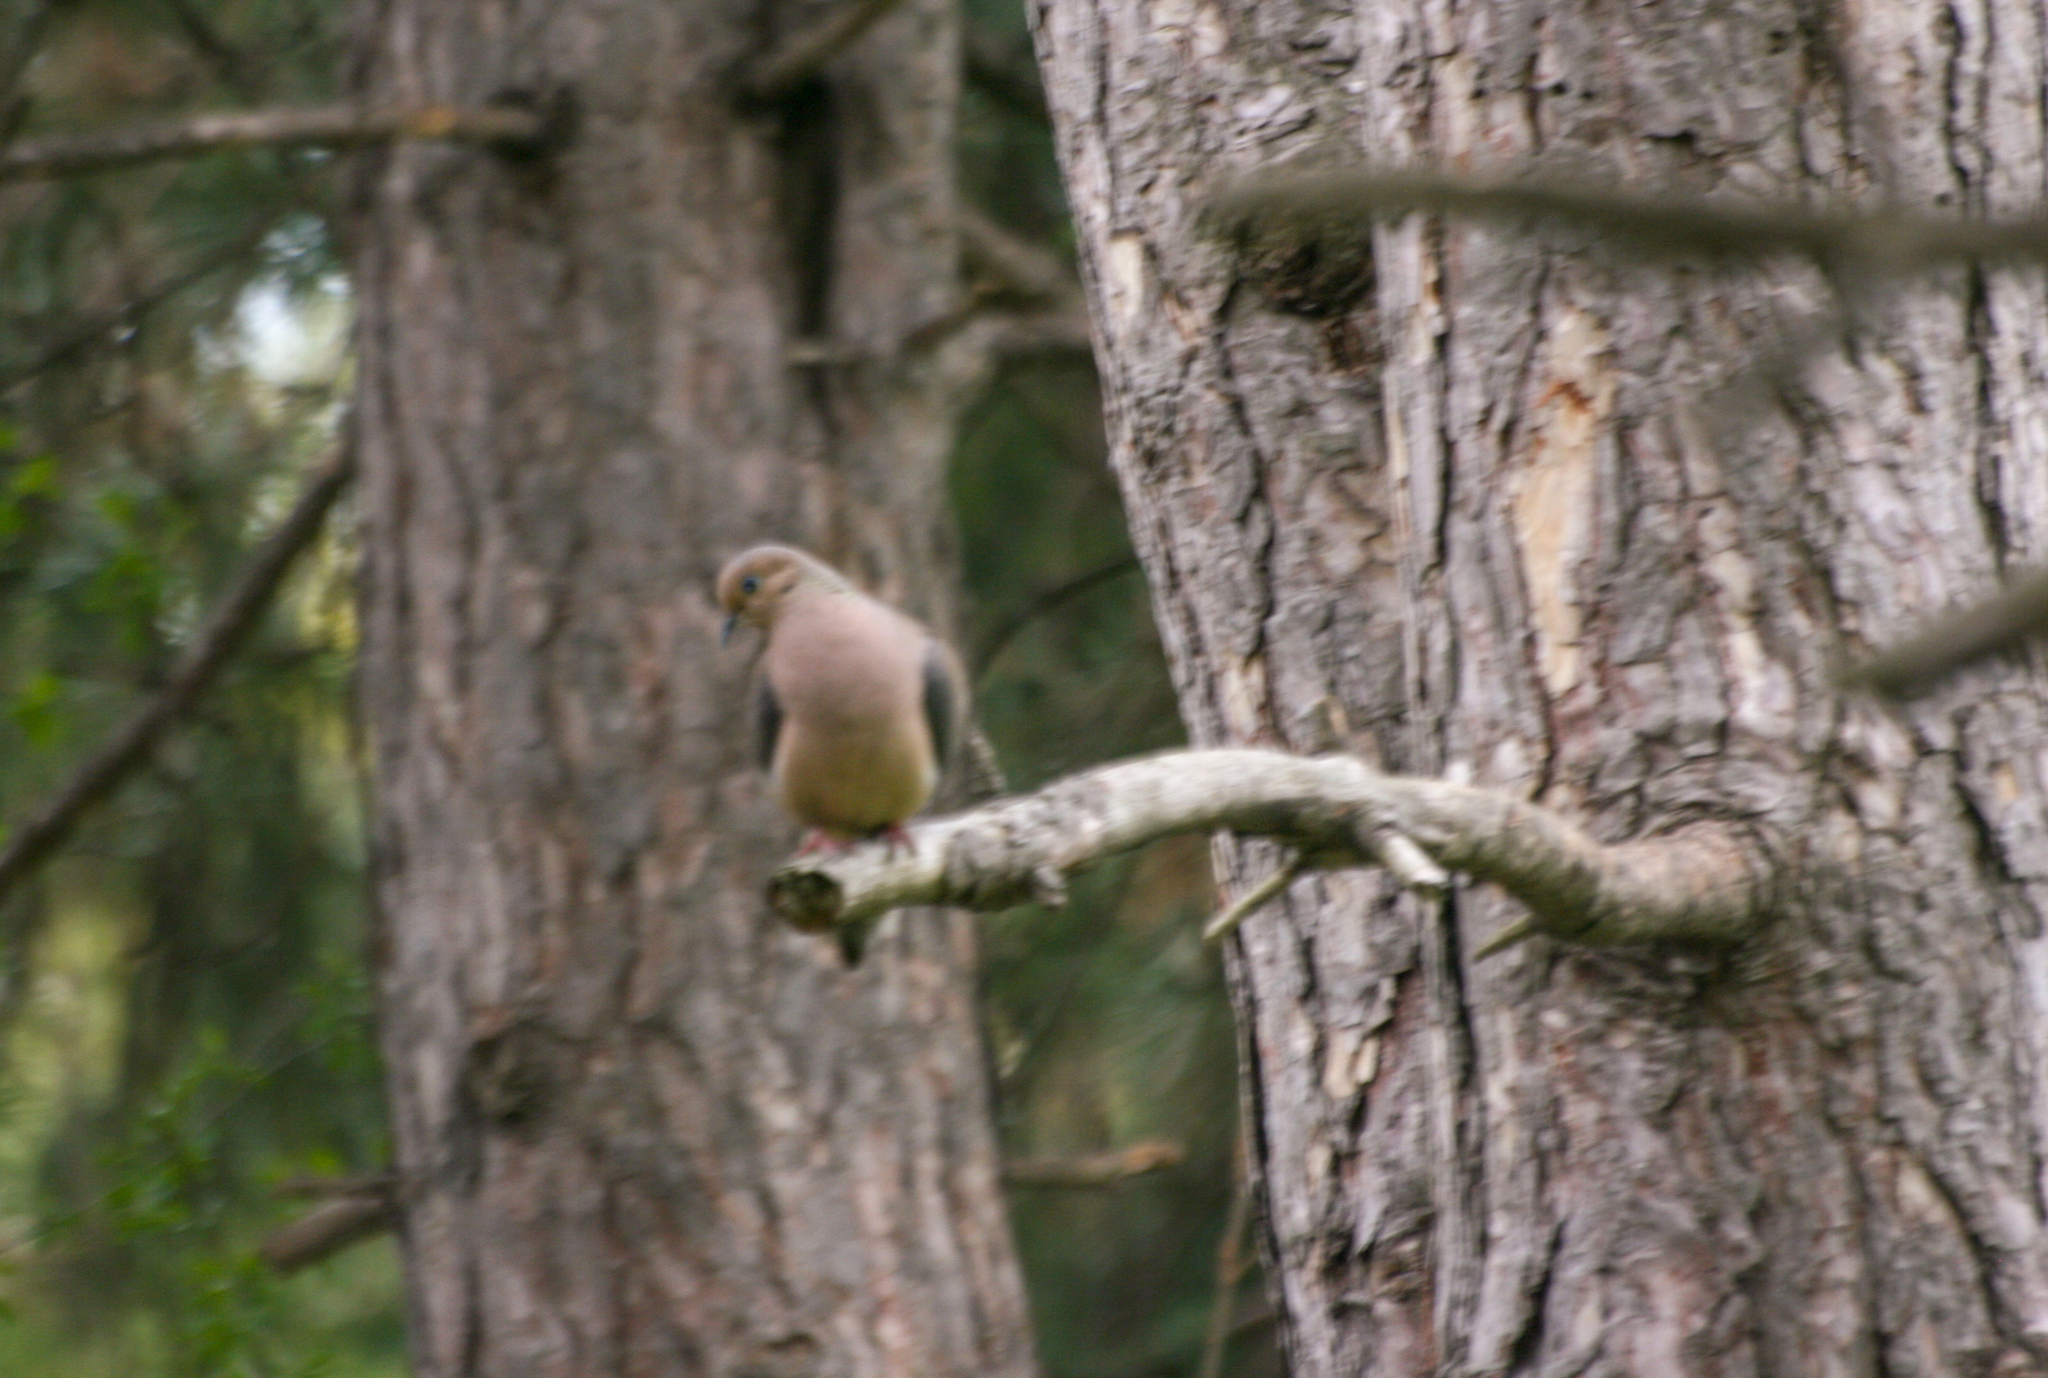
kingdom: Animalia
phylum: Chordata
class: Aves
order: Columbiformes
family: Columbidae
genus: Zenaida
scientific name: Zenaida macroura
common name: Mourning dove
